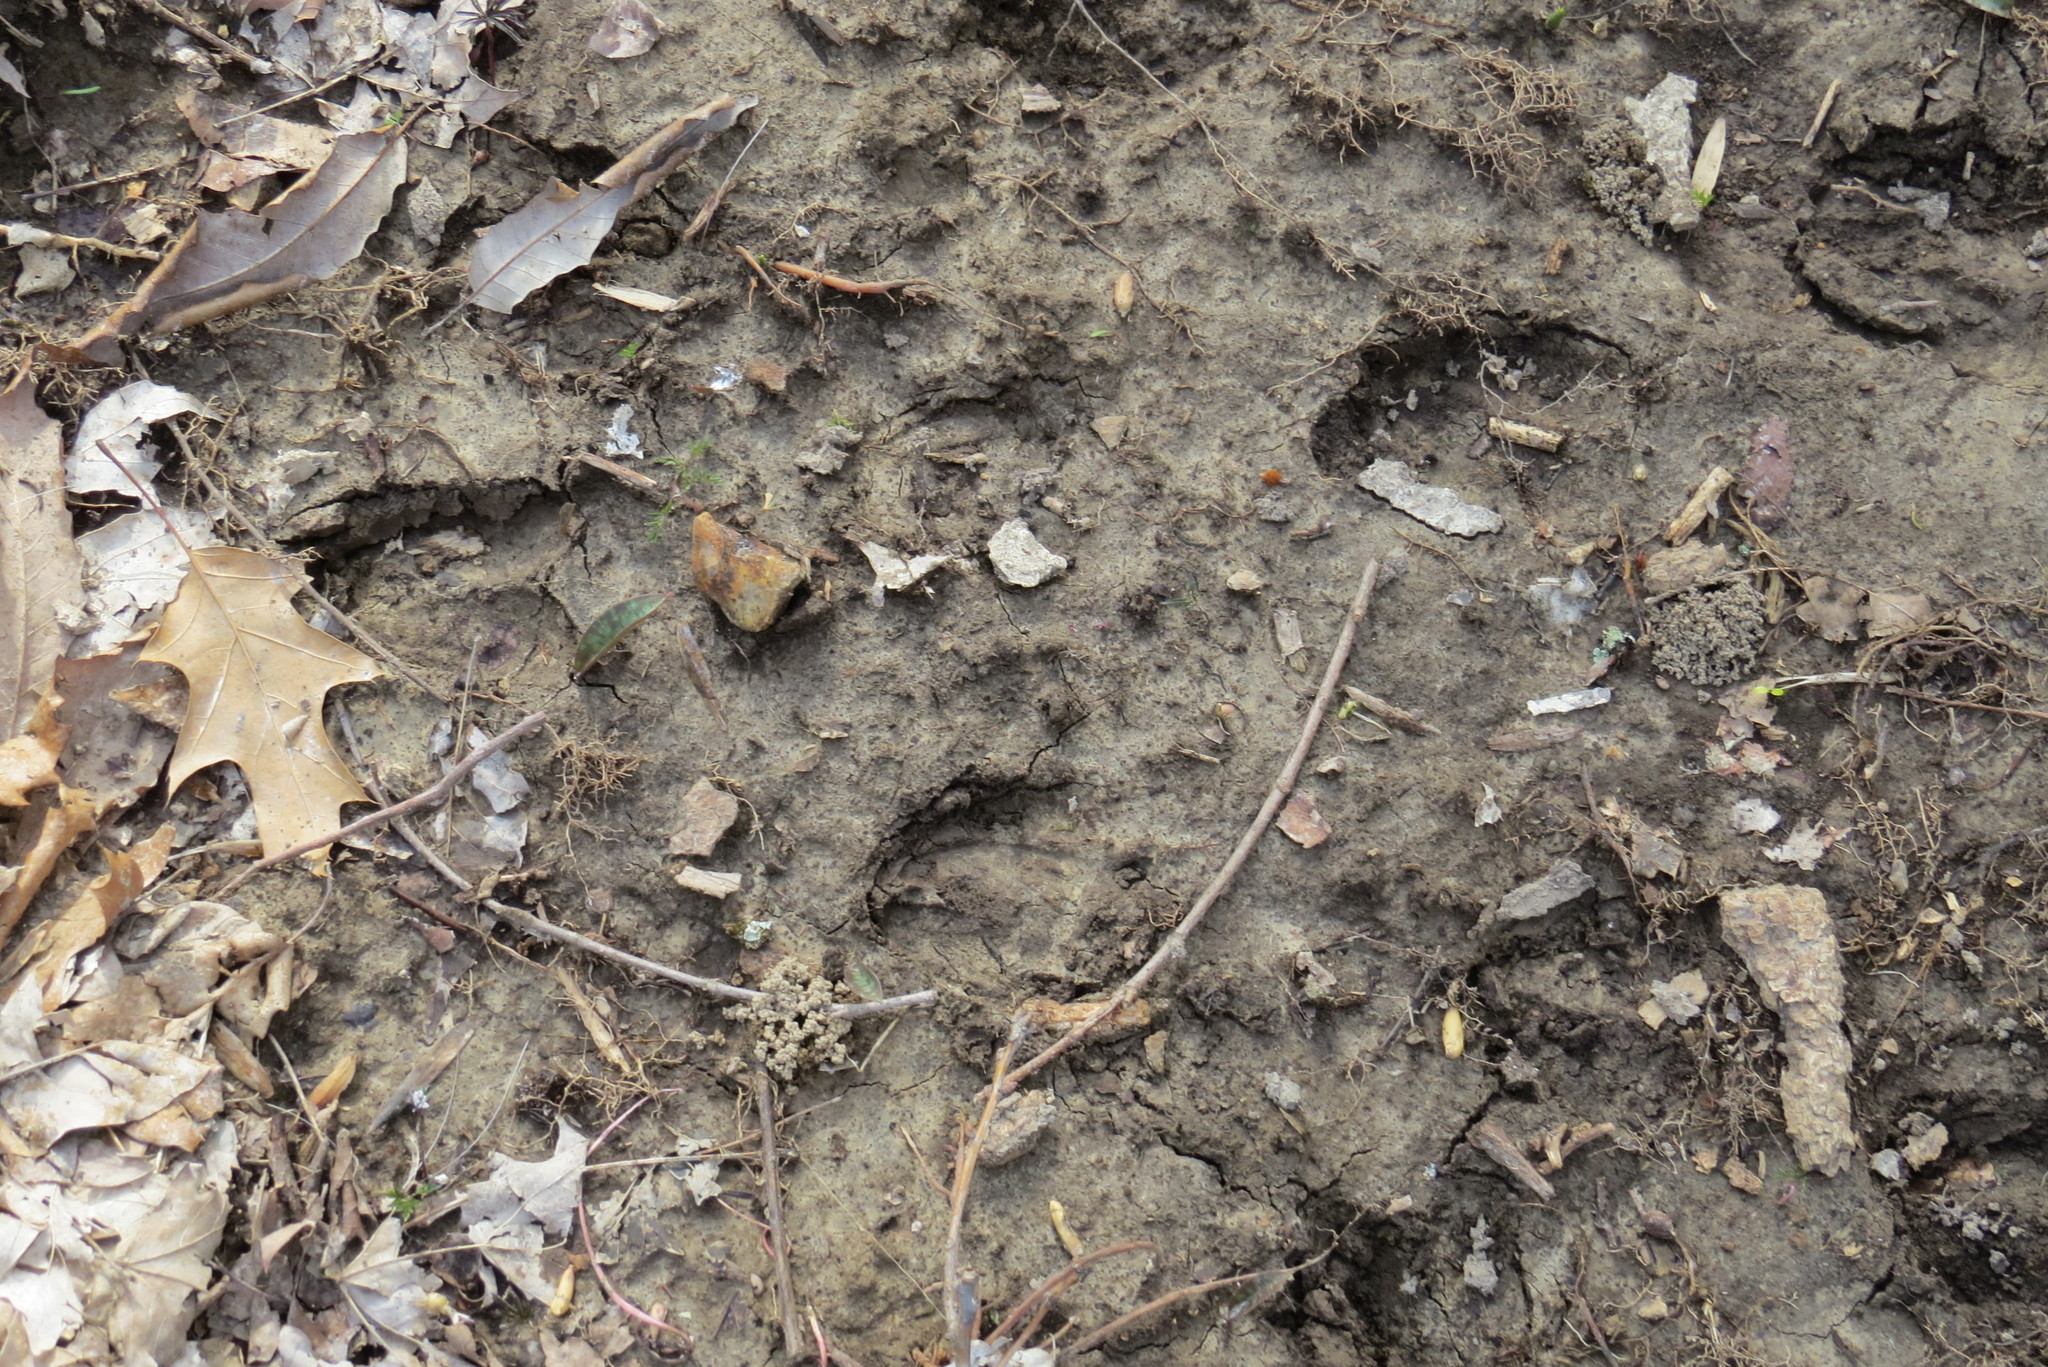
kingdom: Animalia
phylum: Chordata
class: Mammalia
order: Artiodactyla
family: Cervidae
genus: Odocoileus
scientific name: Odocoileus virginianus
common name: White-tailed deer
